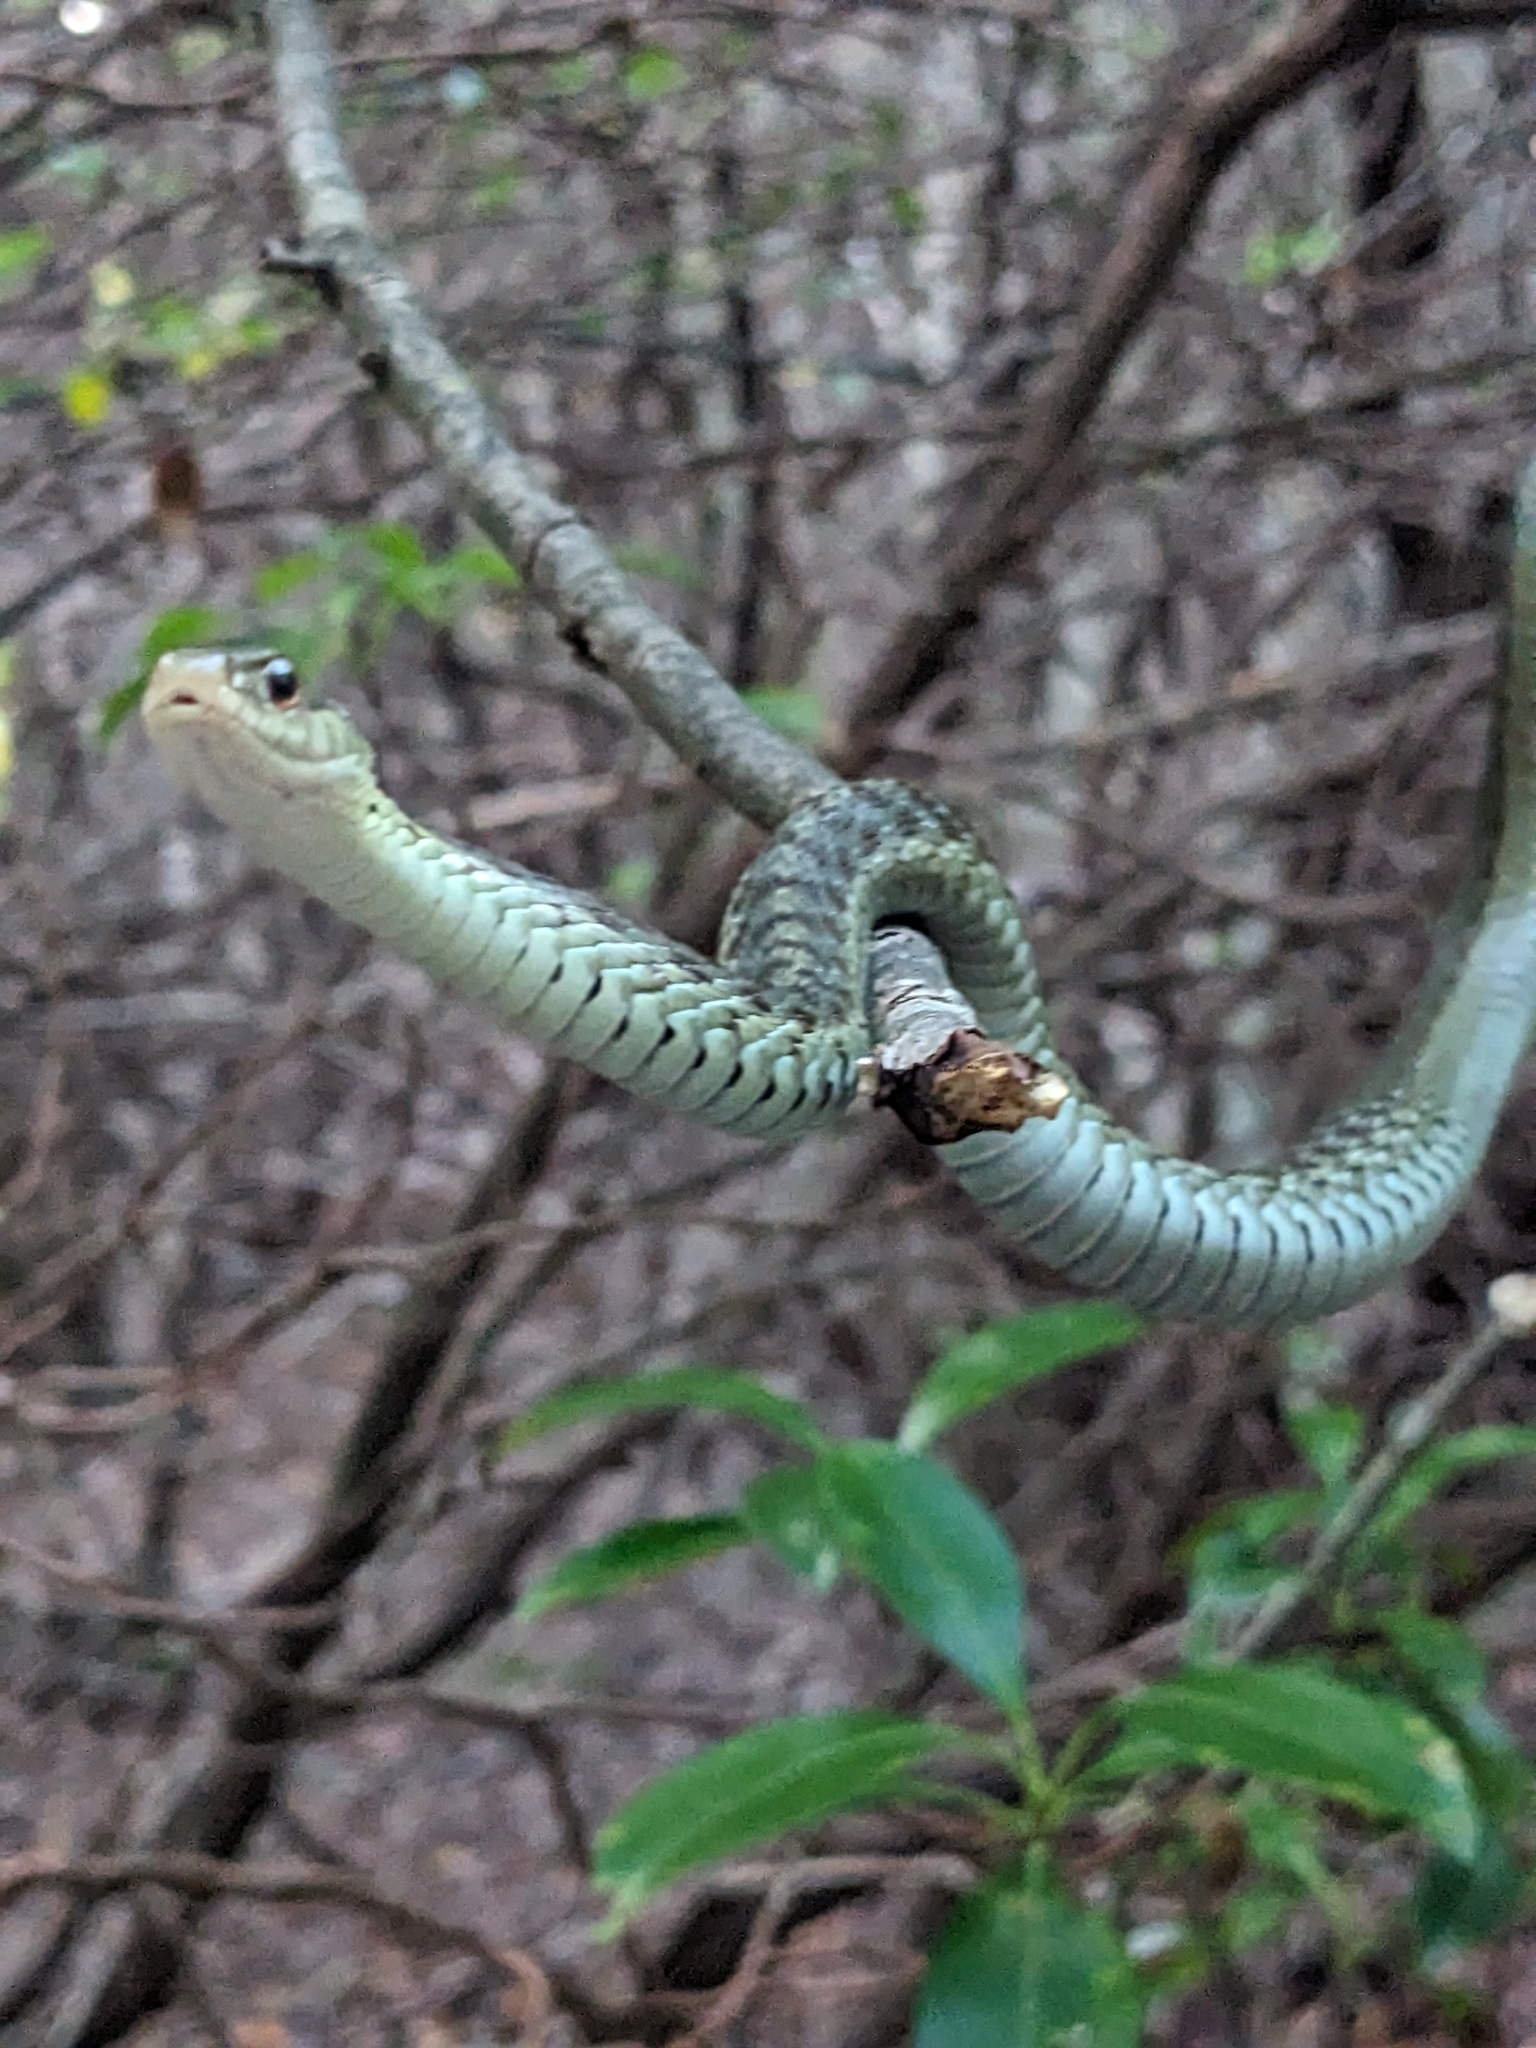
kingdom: Animalia
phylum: Chordata
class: Squamata
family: Colubridae
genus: Thamnophis
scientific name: Thamnophis sirtalis
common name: Common garter snake
